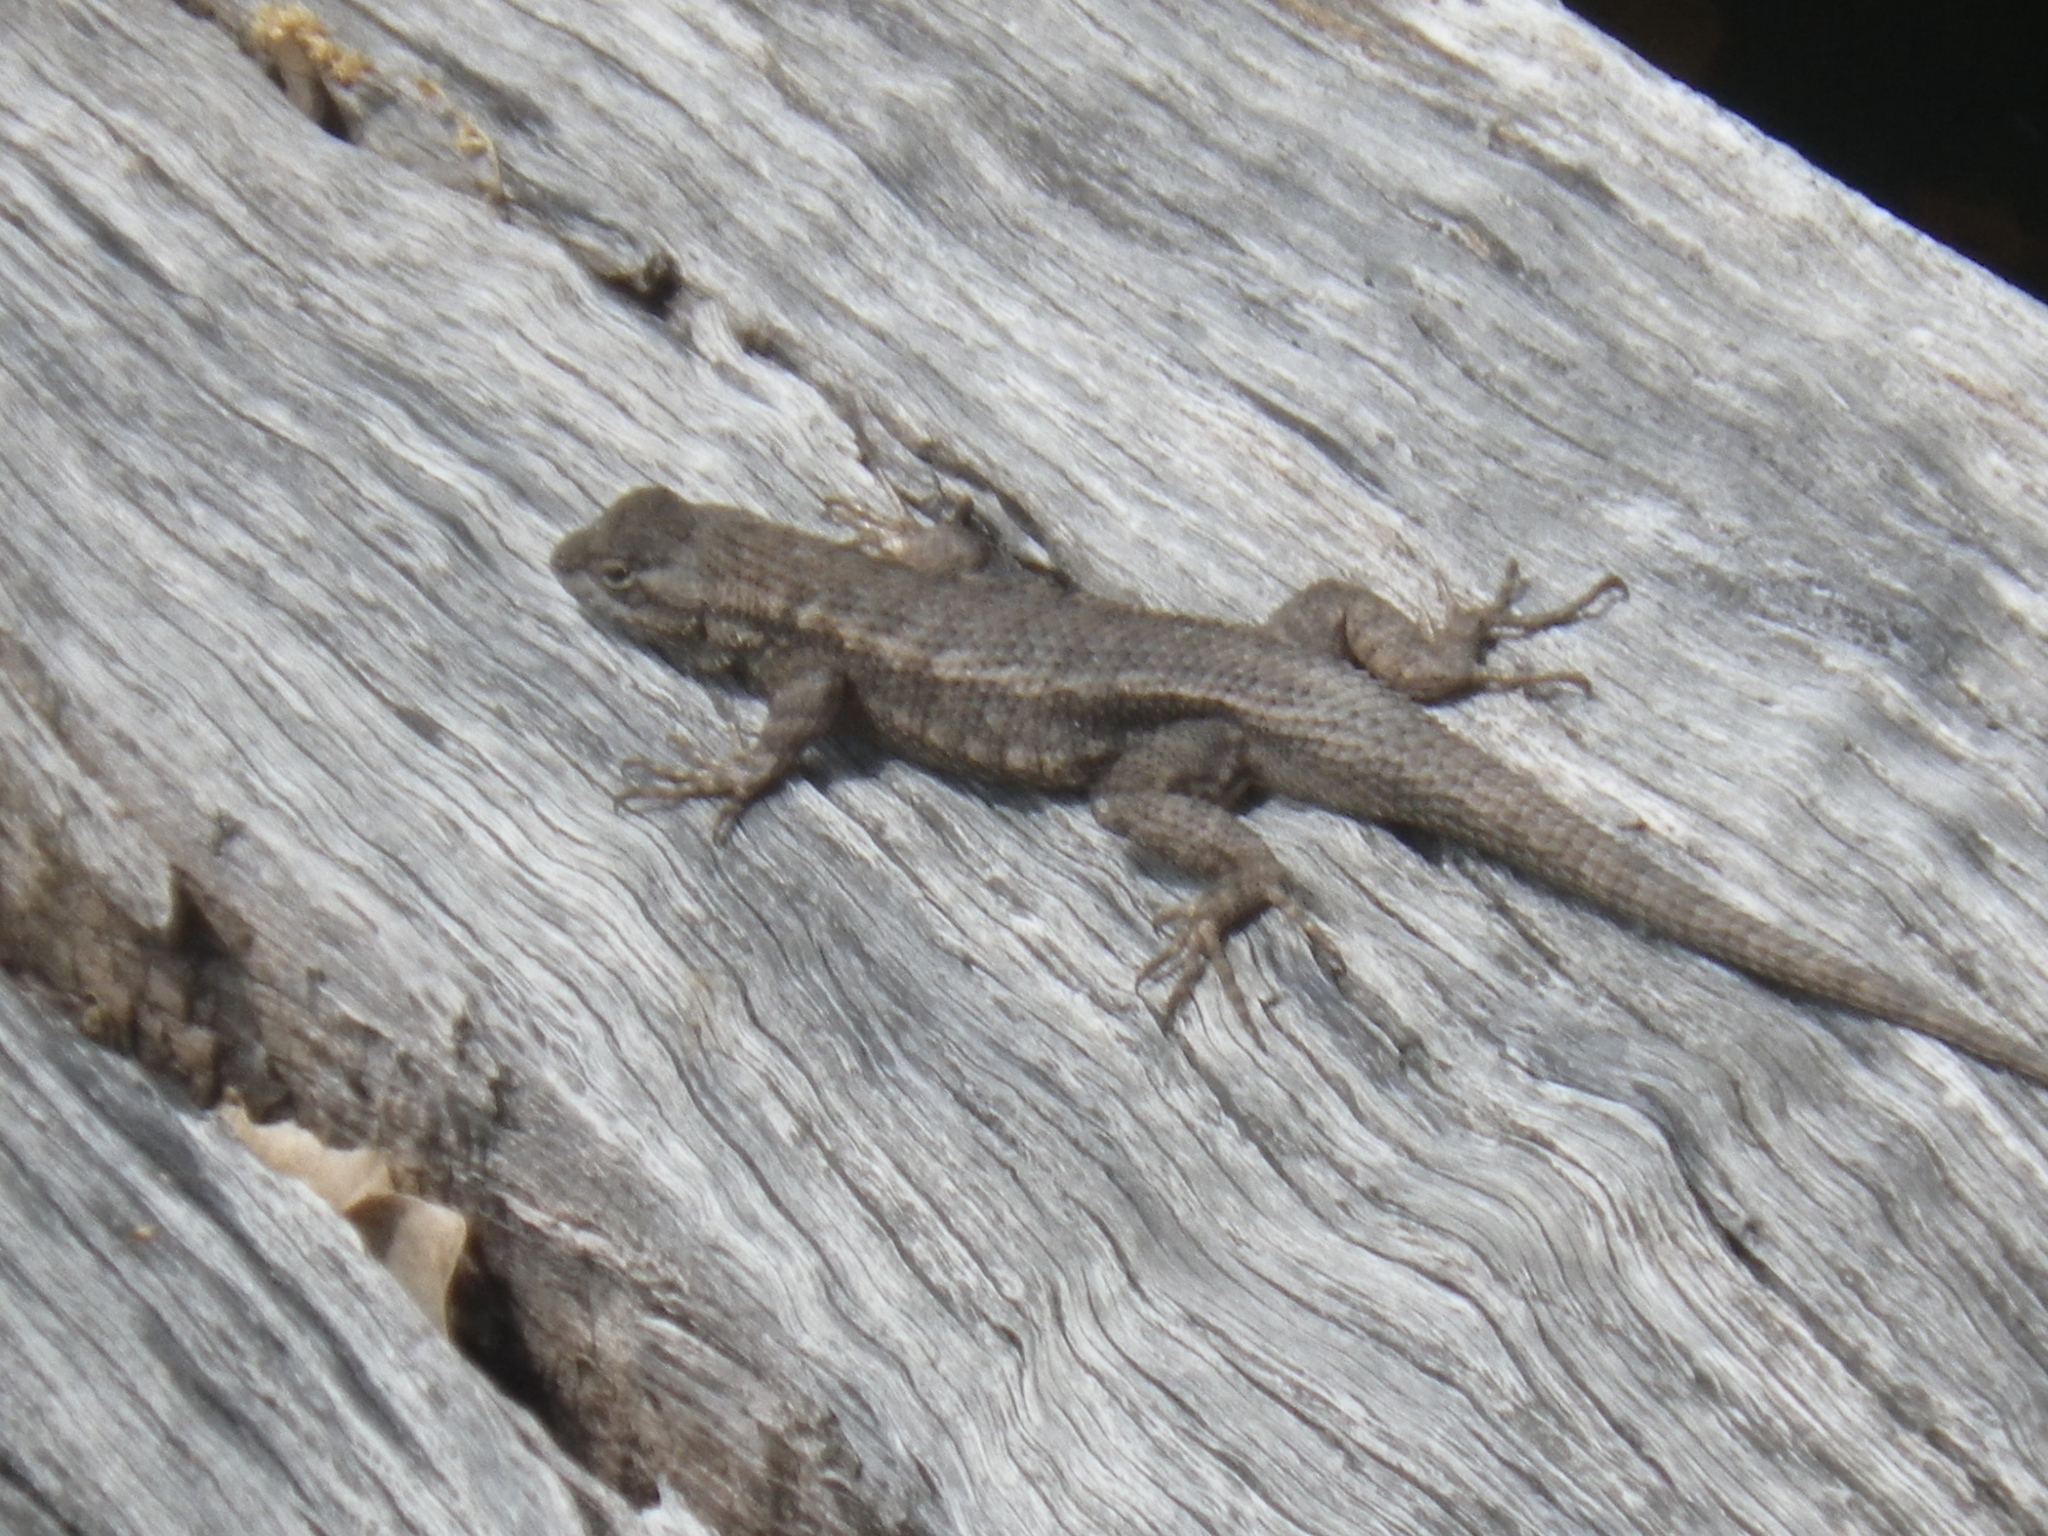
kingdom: Animalia
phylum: Chordata
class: Squamata
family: Phrynosomatidae
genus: Sceloporus
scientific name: Sceloporus occidentalis
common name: Western fence lizard
